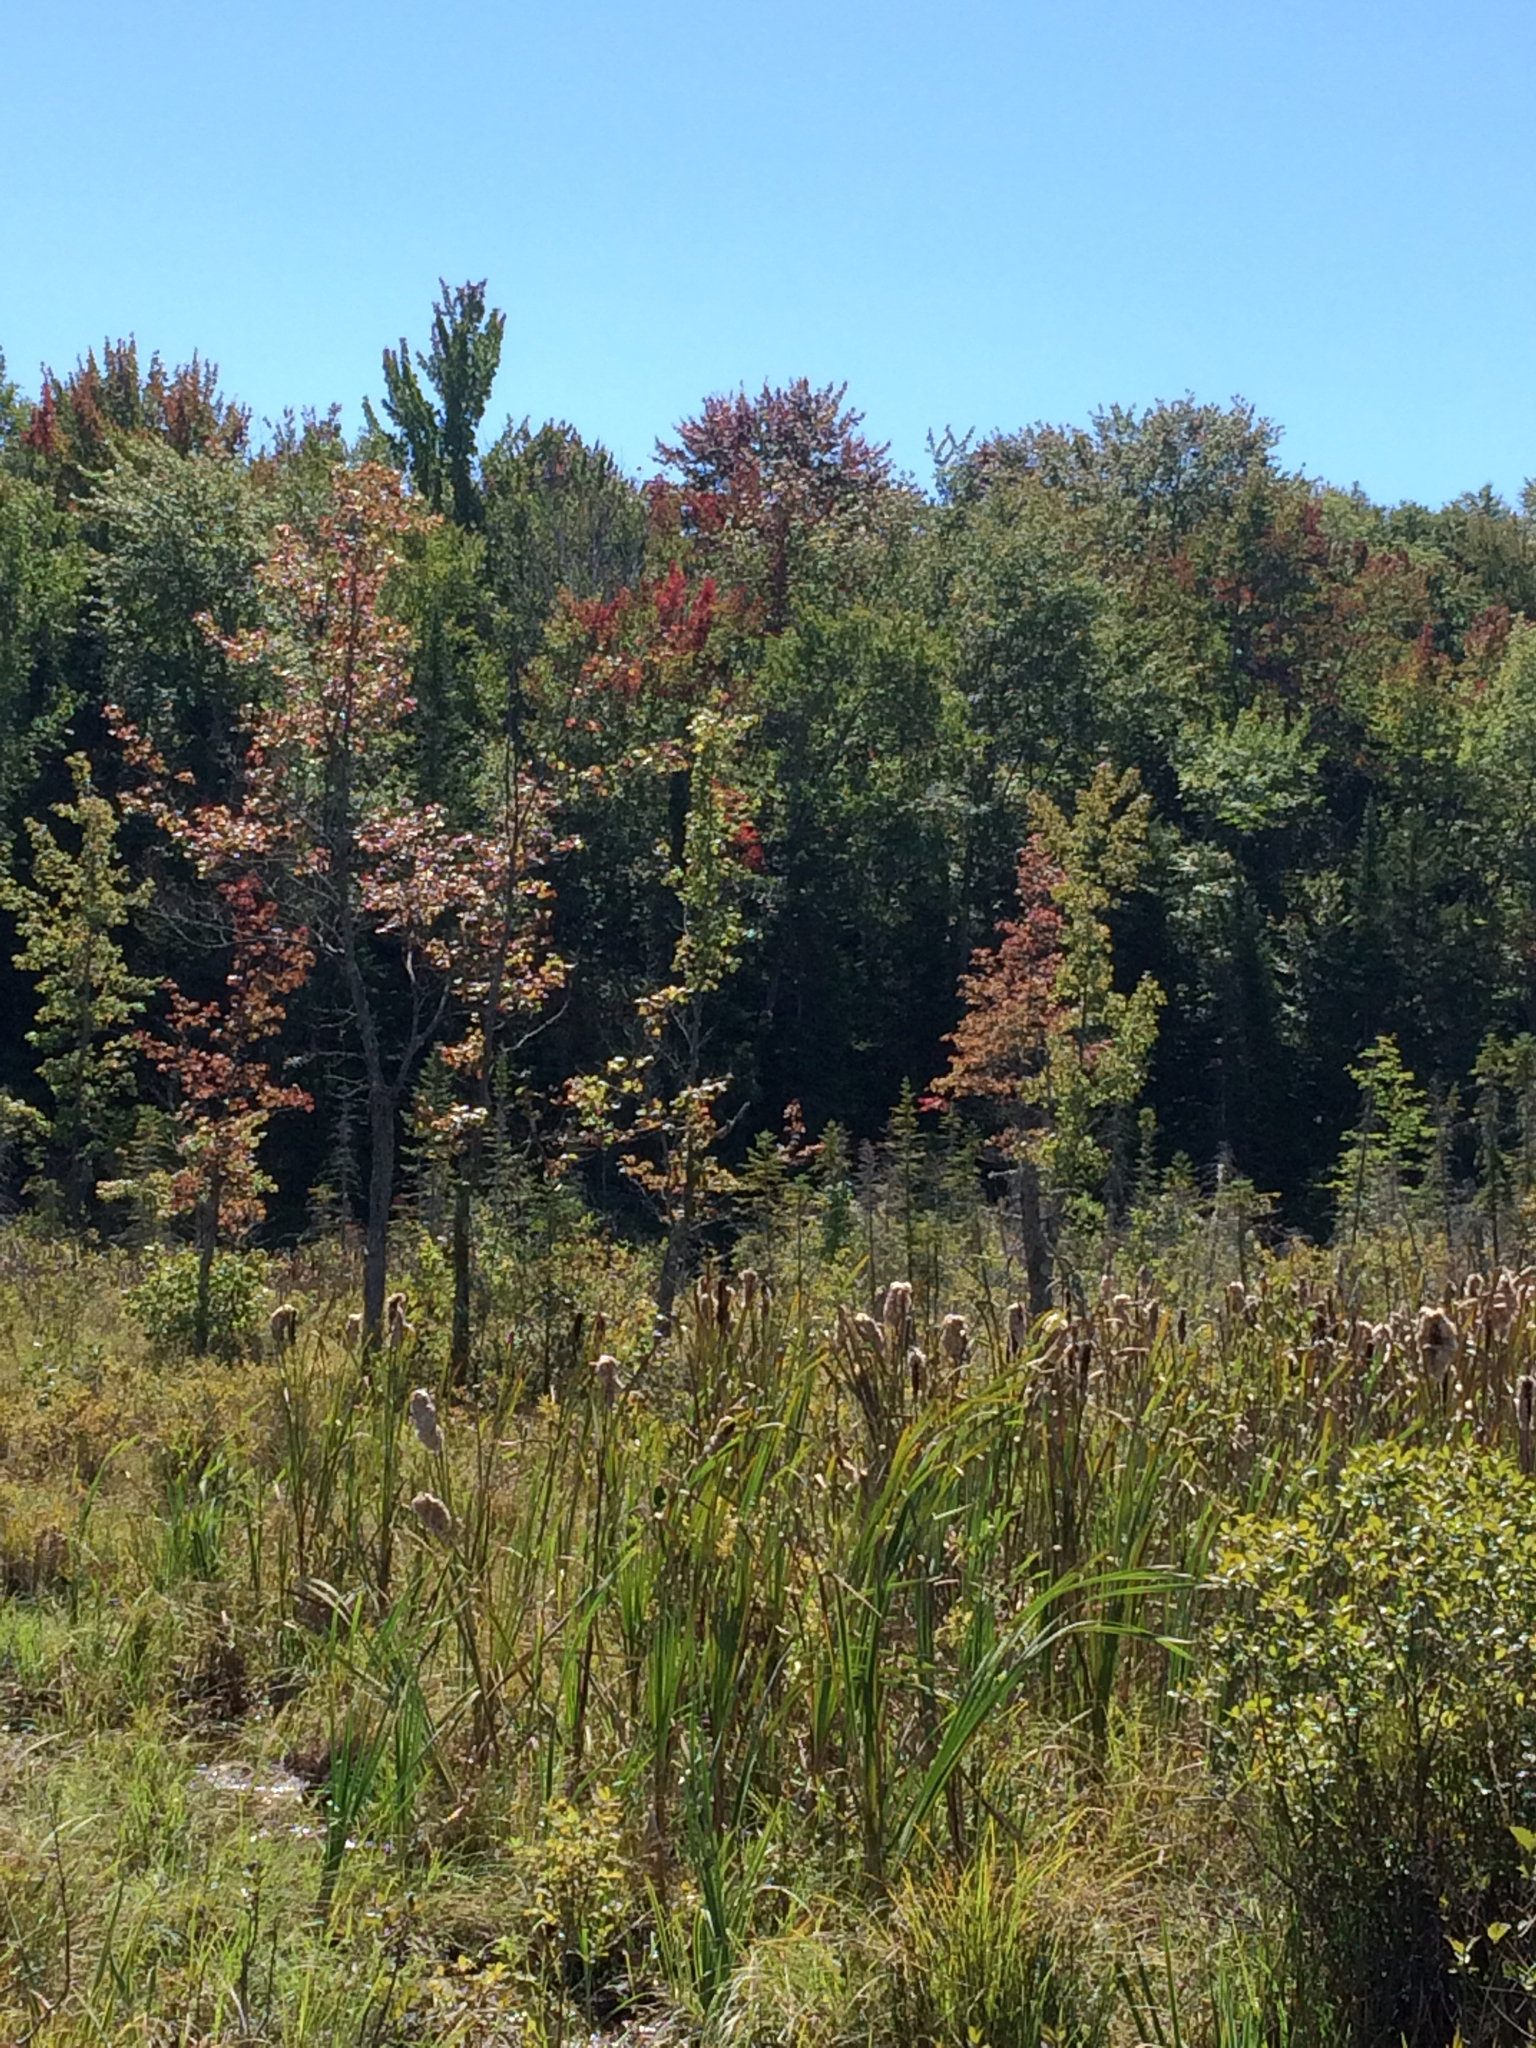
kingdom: Plantae
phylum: Tracheophyta
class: Magnoliopsida
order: Sapindales
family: Sapindaceae
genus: Acer
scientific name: Acer rubrum
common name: Red maple
